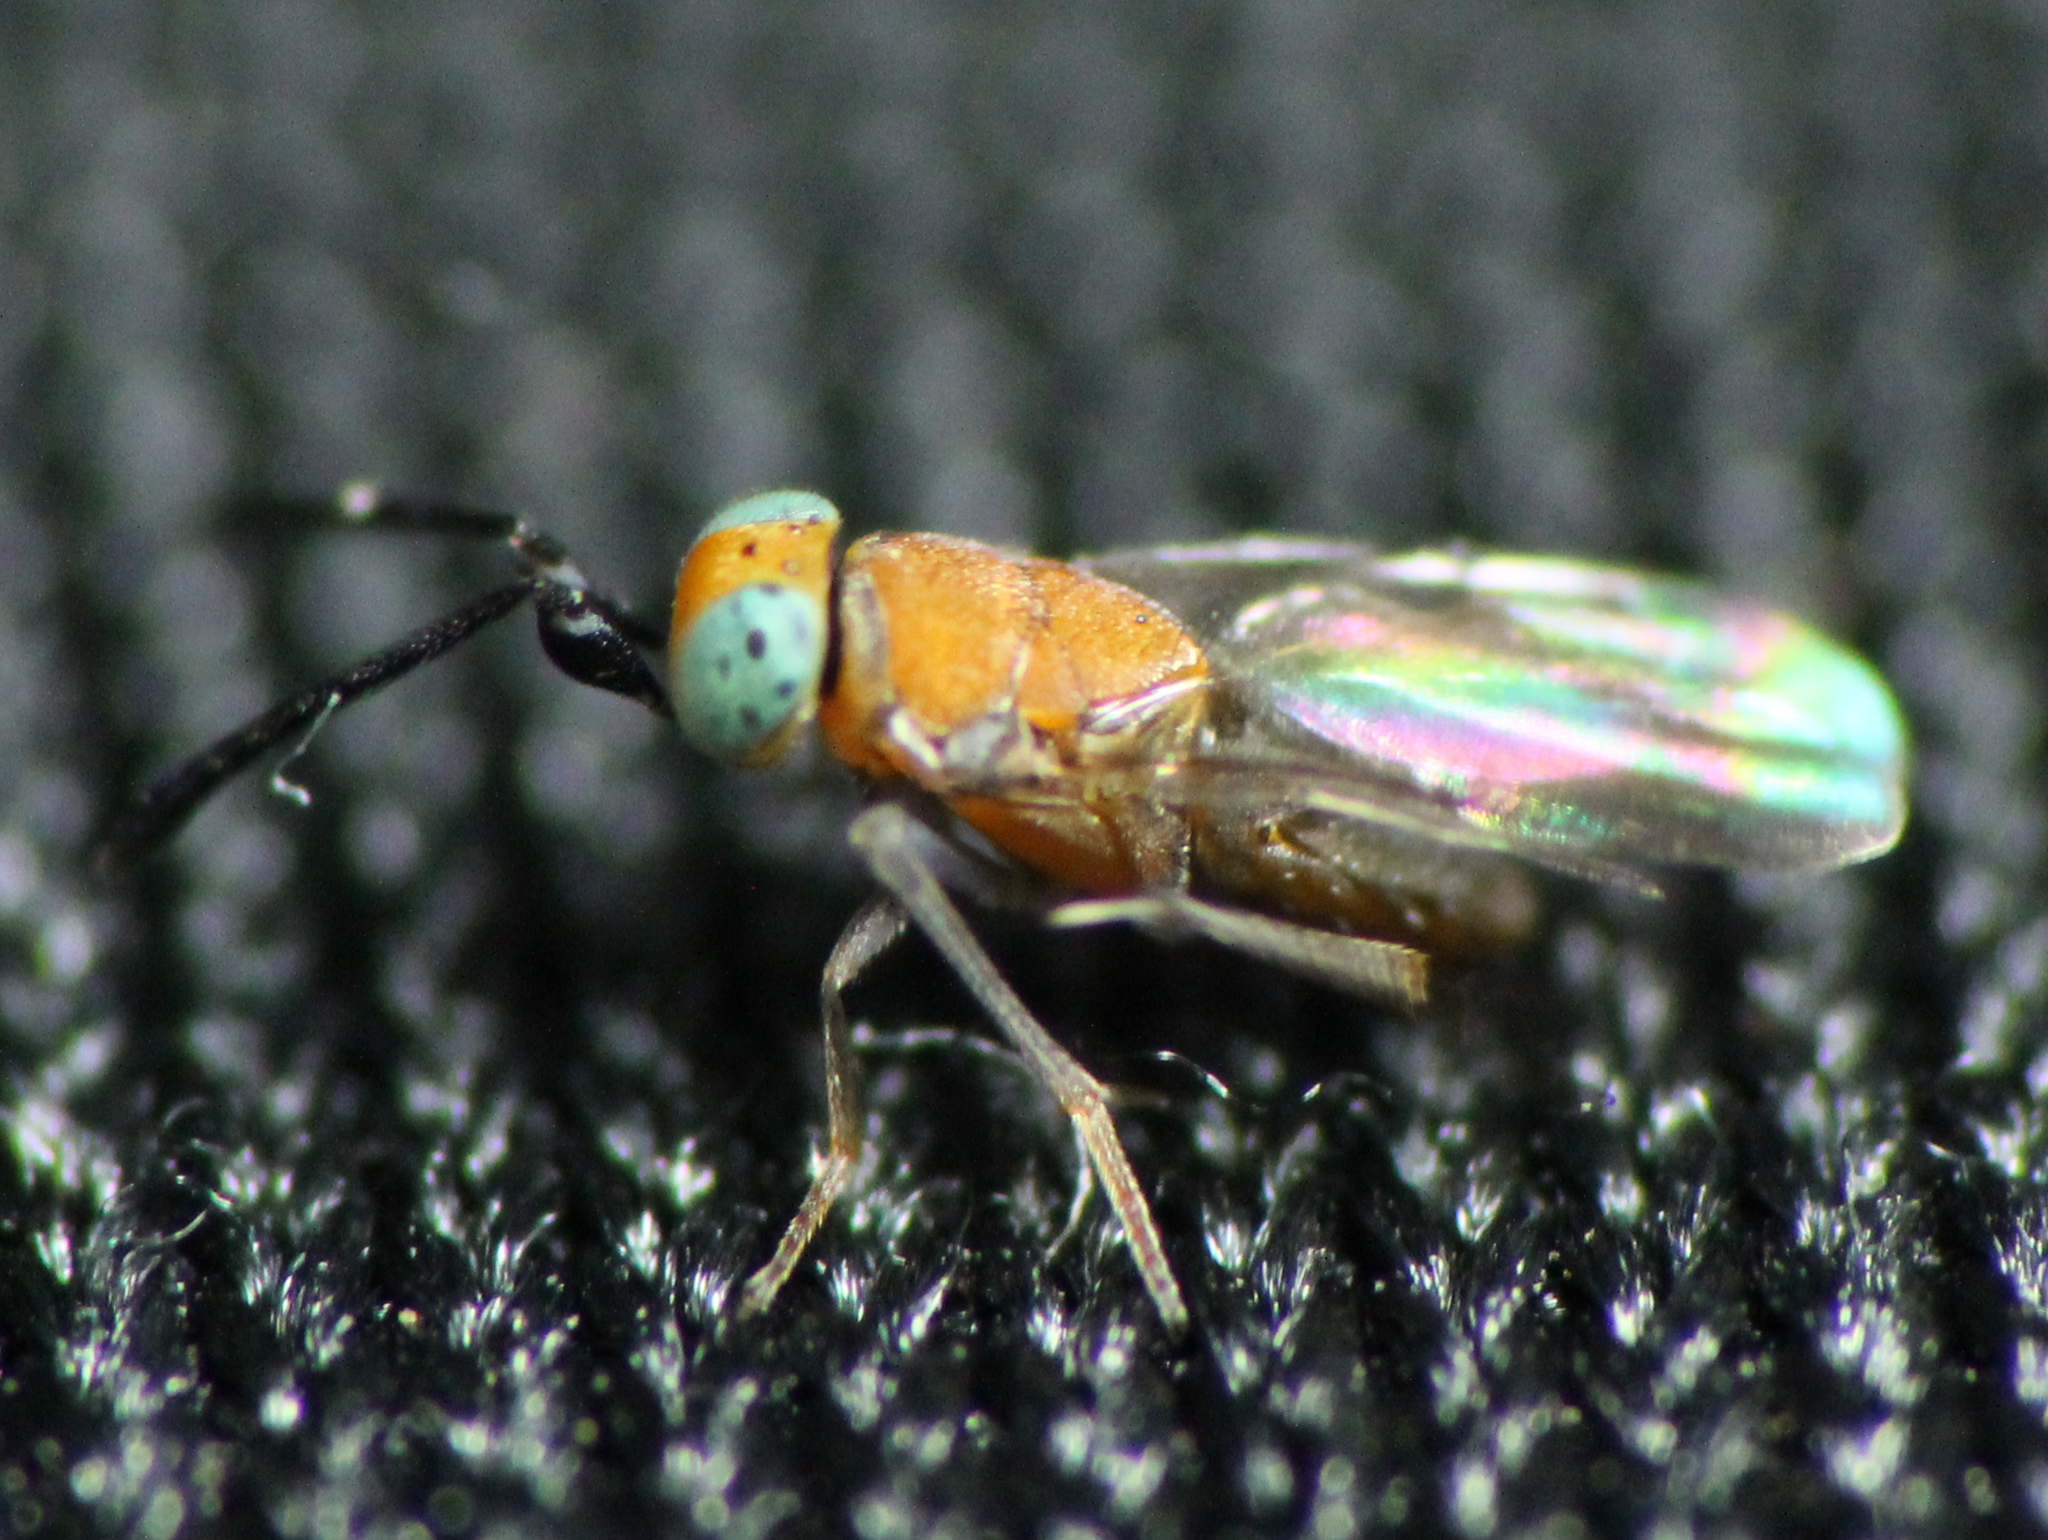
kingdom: Animalia
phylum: Arthropoda
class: Insecta
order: Hymenoptera
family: Encyrtidae
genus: Anagyrus
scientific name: Anagyrus fusciventris
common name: Encyrtid parasitoid wasp
